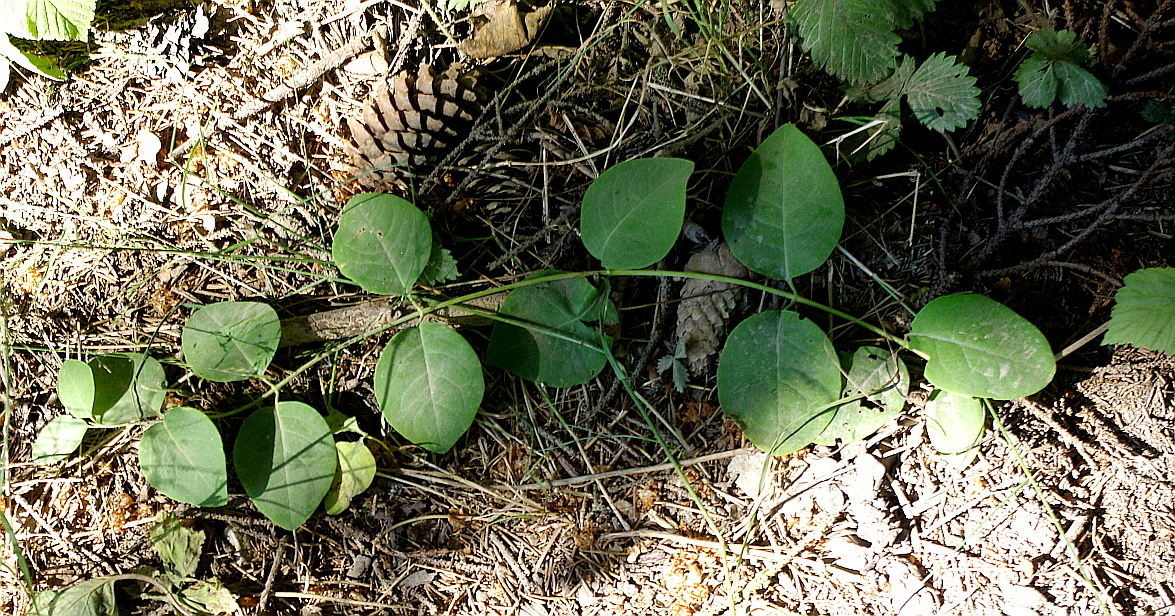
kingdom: Plantae
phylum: Tracheophyta
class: Magnoliopsida
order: Dipsacales
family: Caprifoliaceae
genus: Lonicera
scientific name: Lonicera caprifolium
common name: Perfoliate honeysuckle
